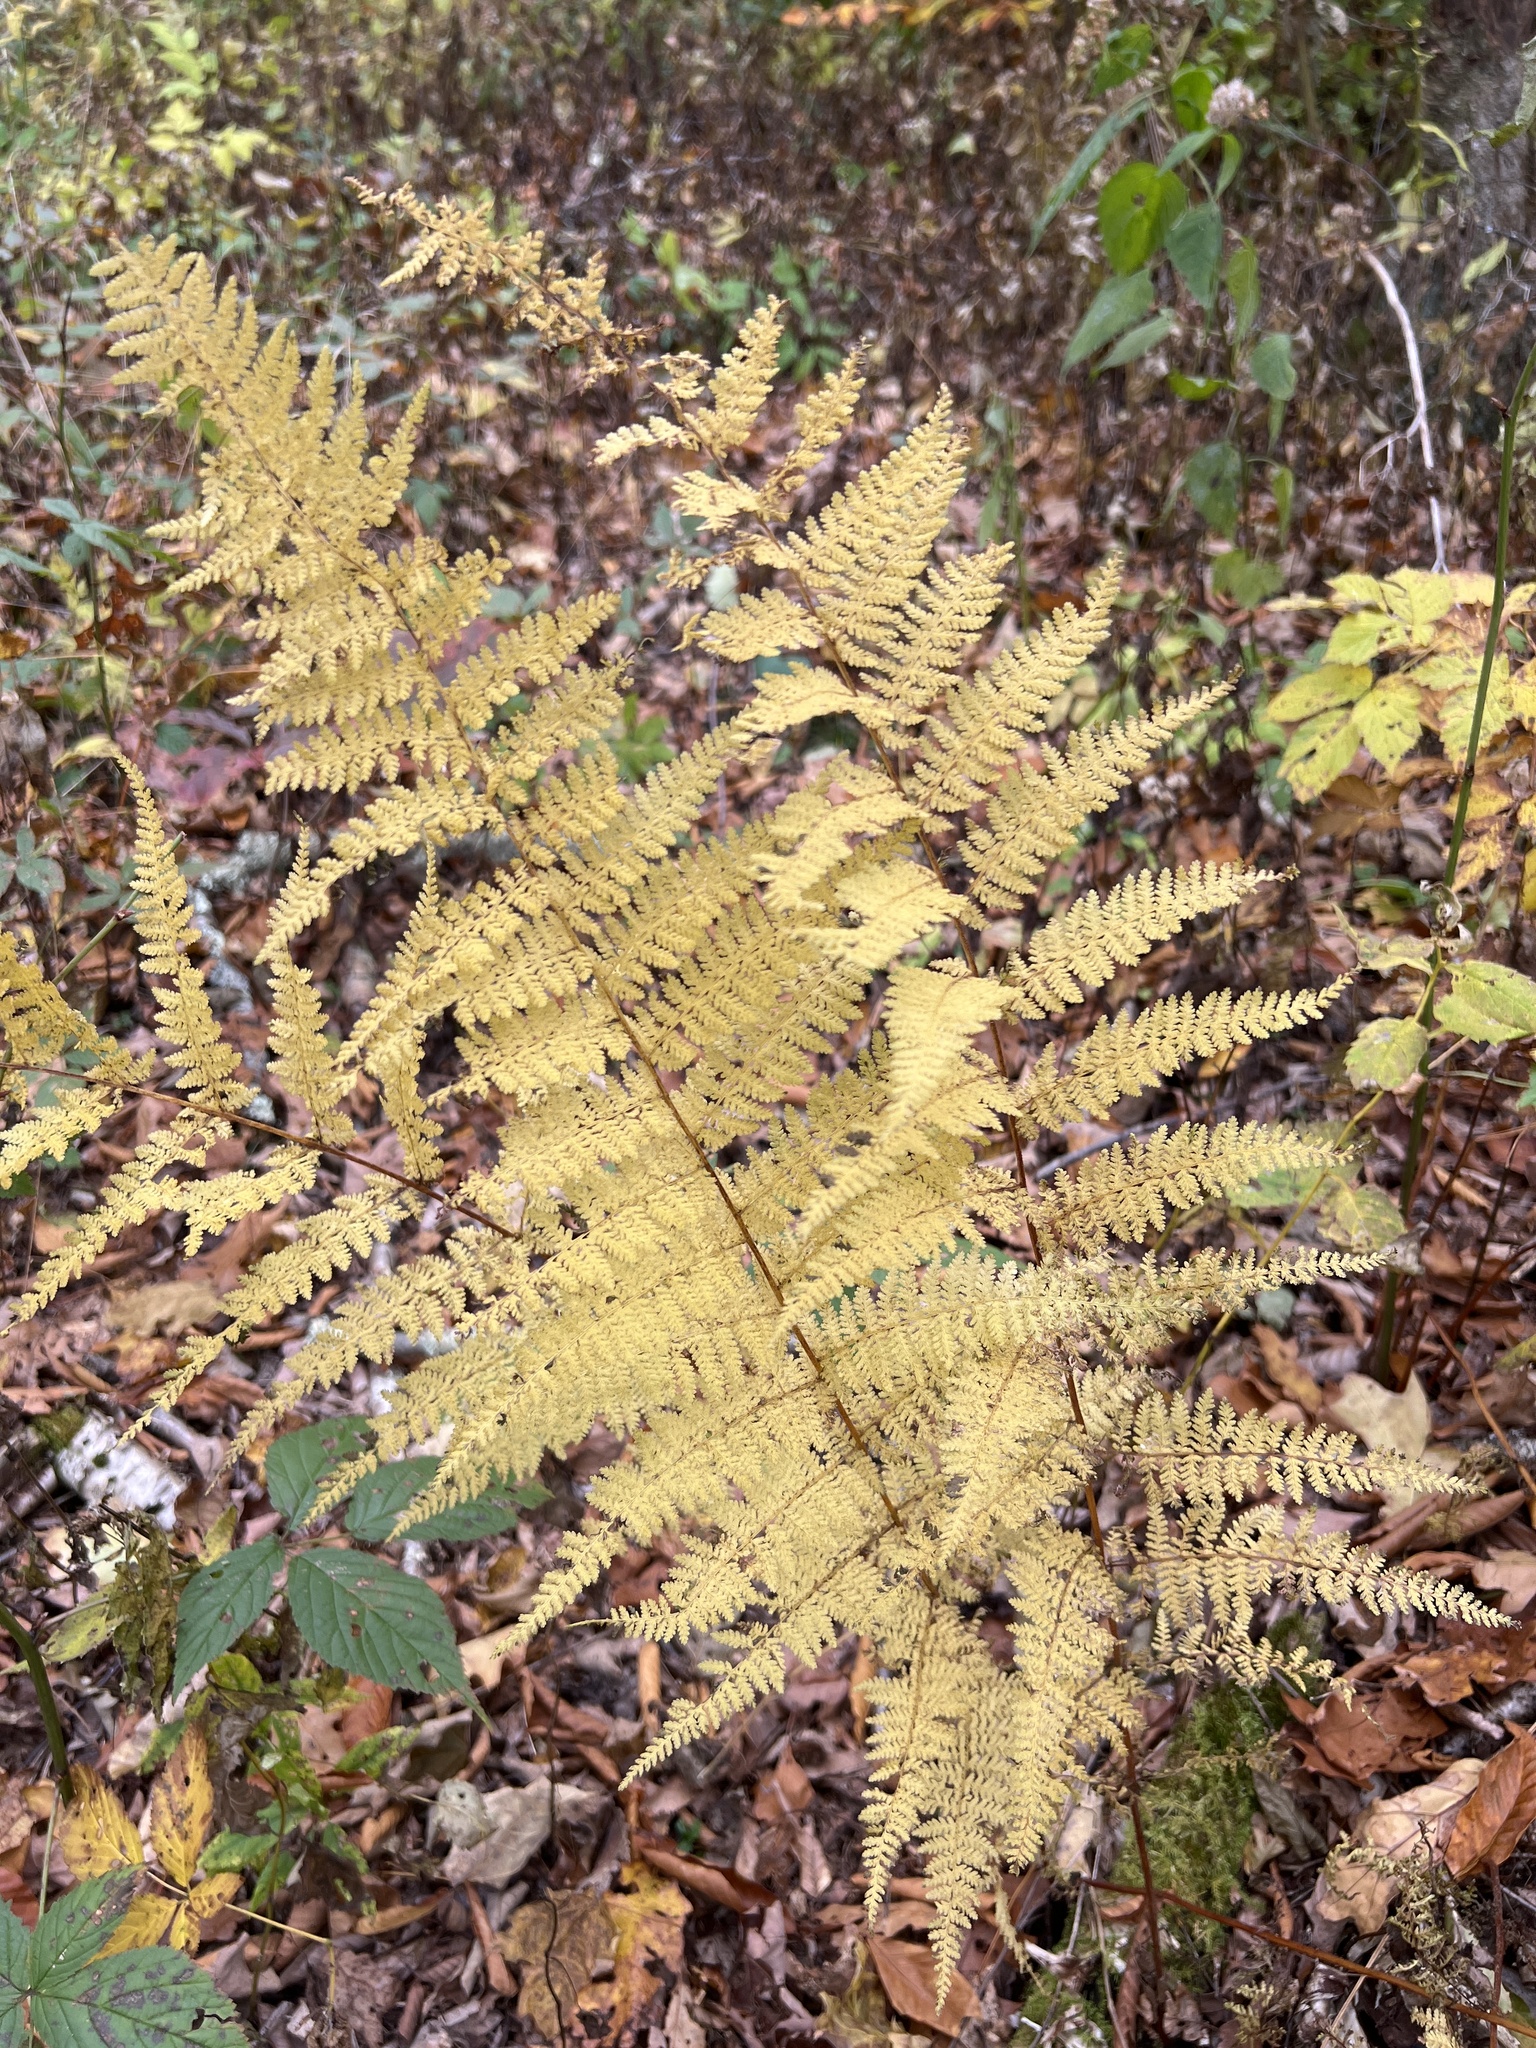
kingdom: Plantae
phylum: Tracheophyta
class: Polypodiopsida
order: Polypodiales
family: Dennstaedtiaceae
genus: Sitobolium
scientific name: Sitobolium punctilobum
